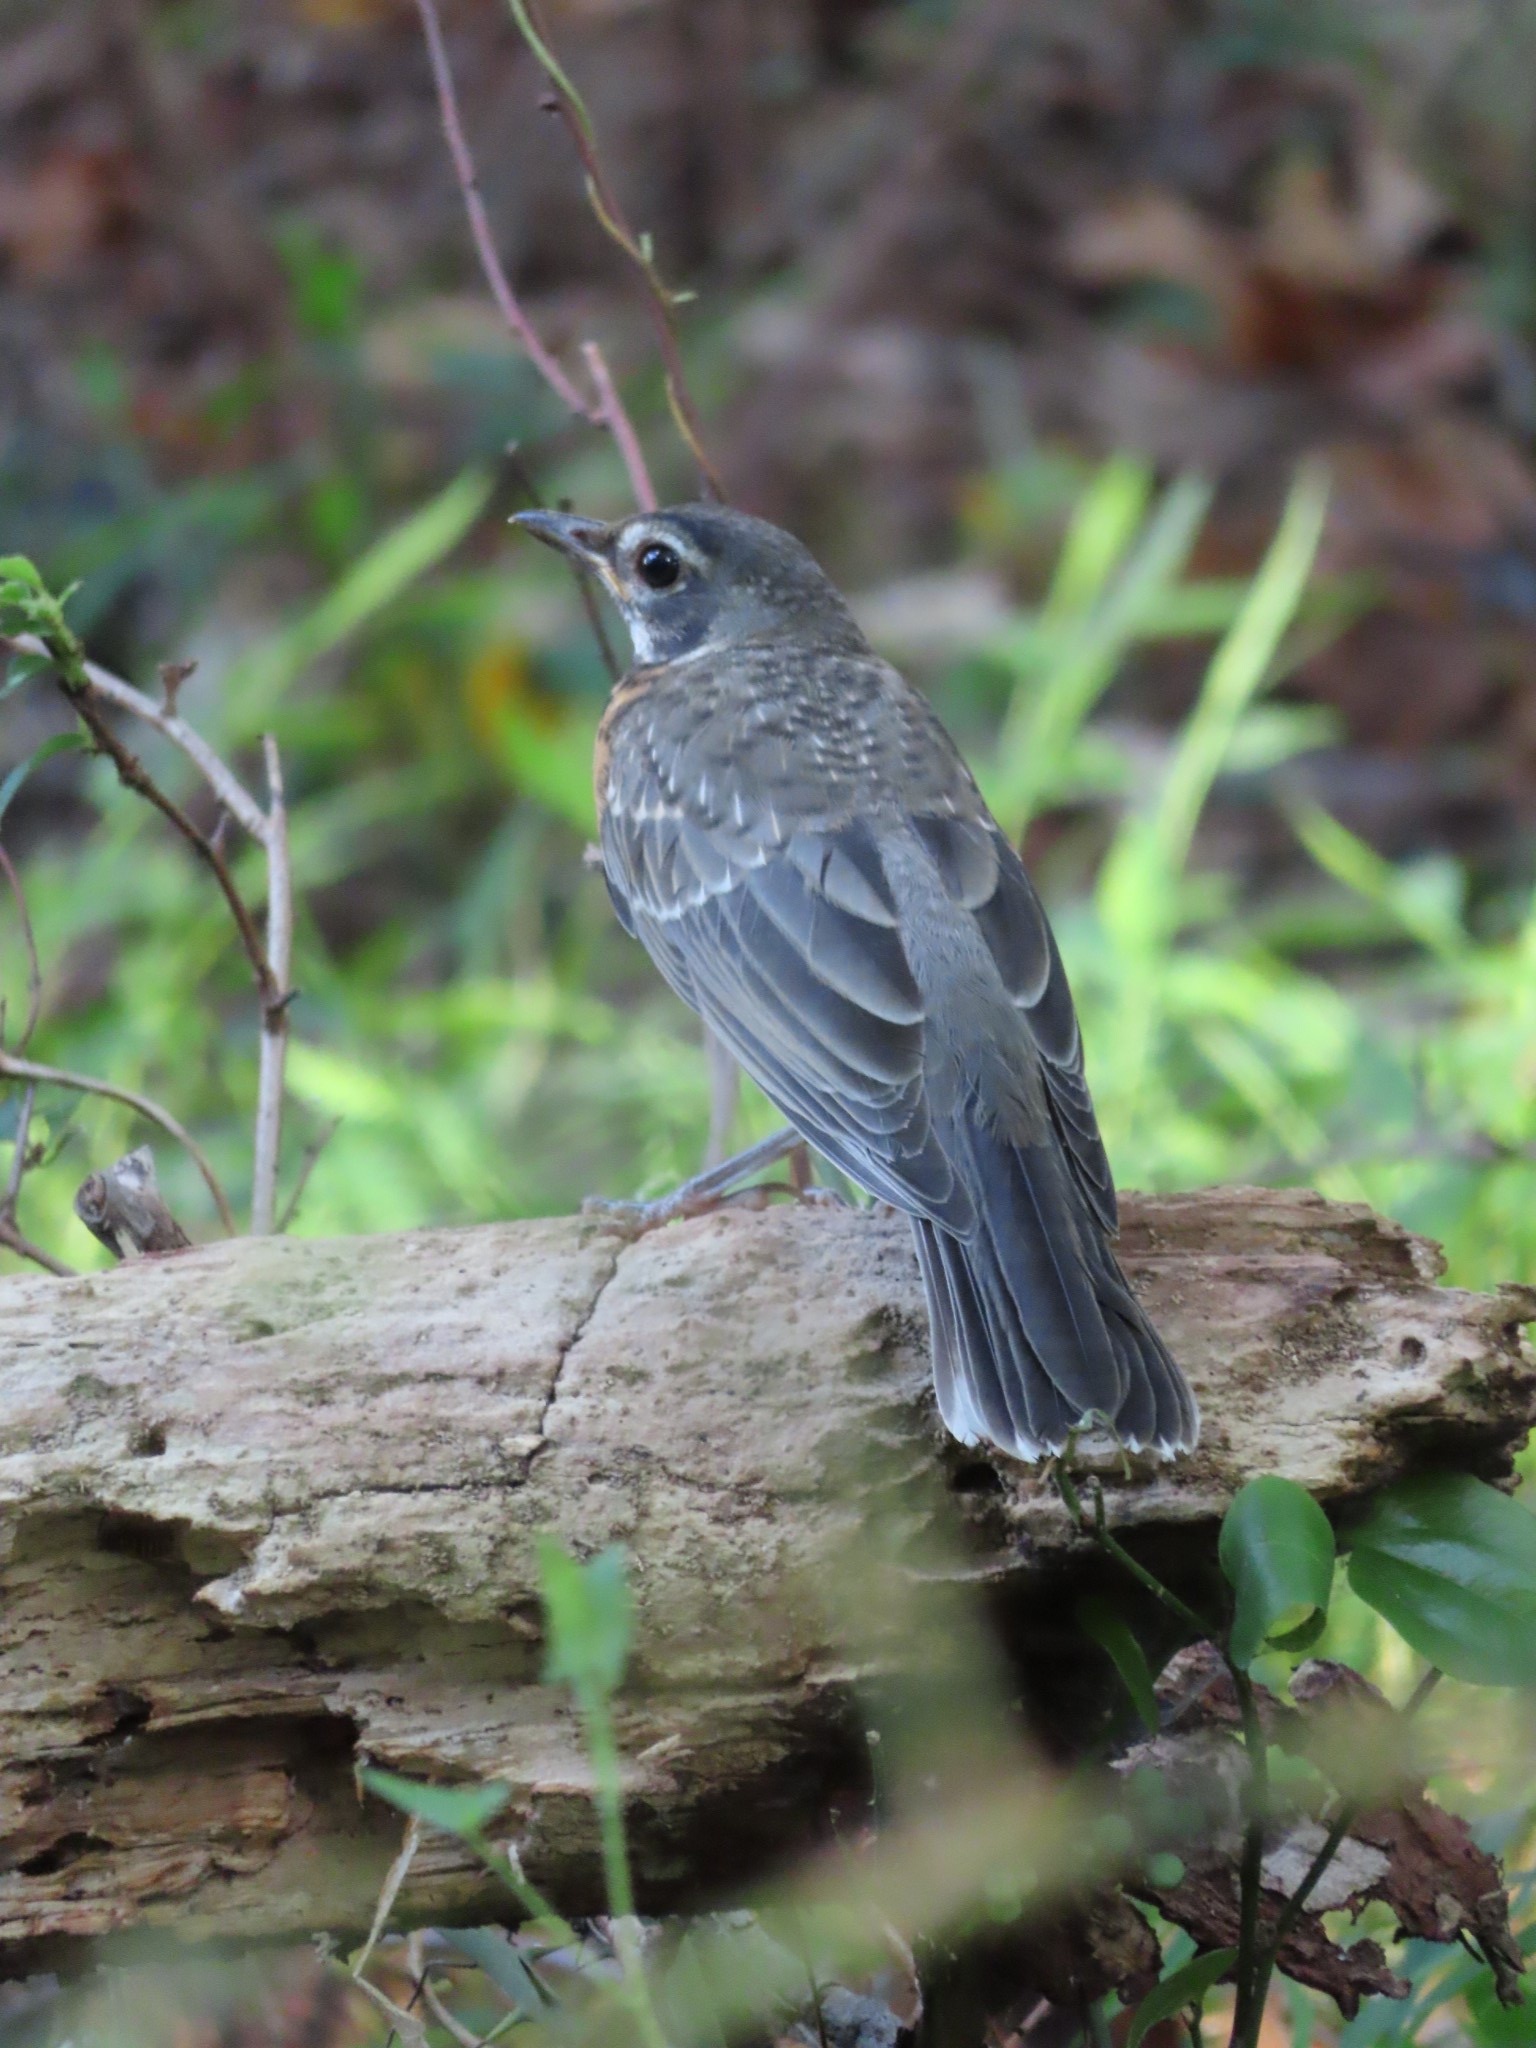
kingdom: Animalia
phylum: Chordata
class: Aves
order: Passeriformes
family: Turdidae
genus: Turdus
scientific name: Turdus migratorius
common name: American robin
